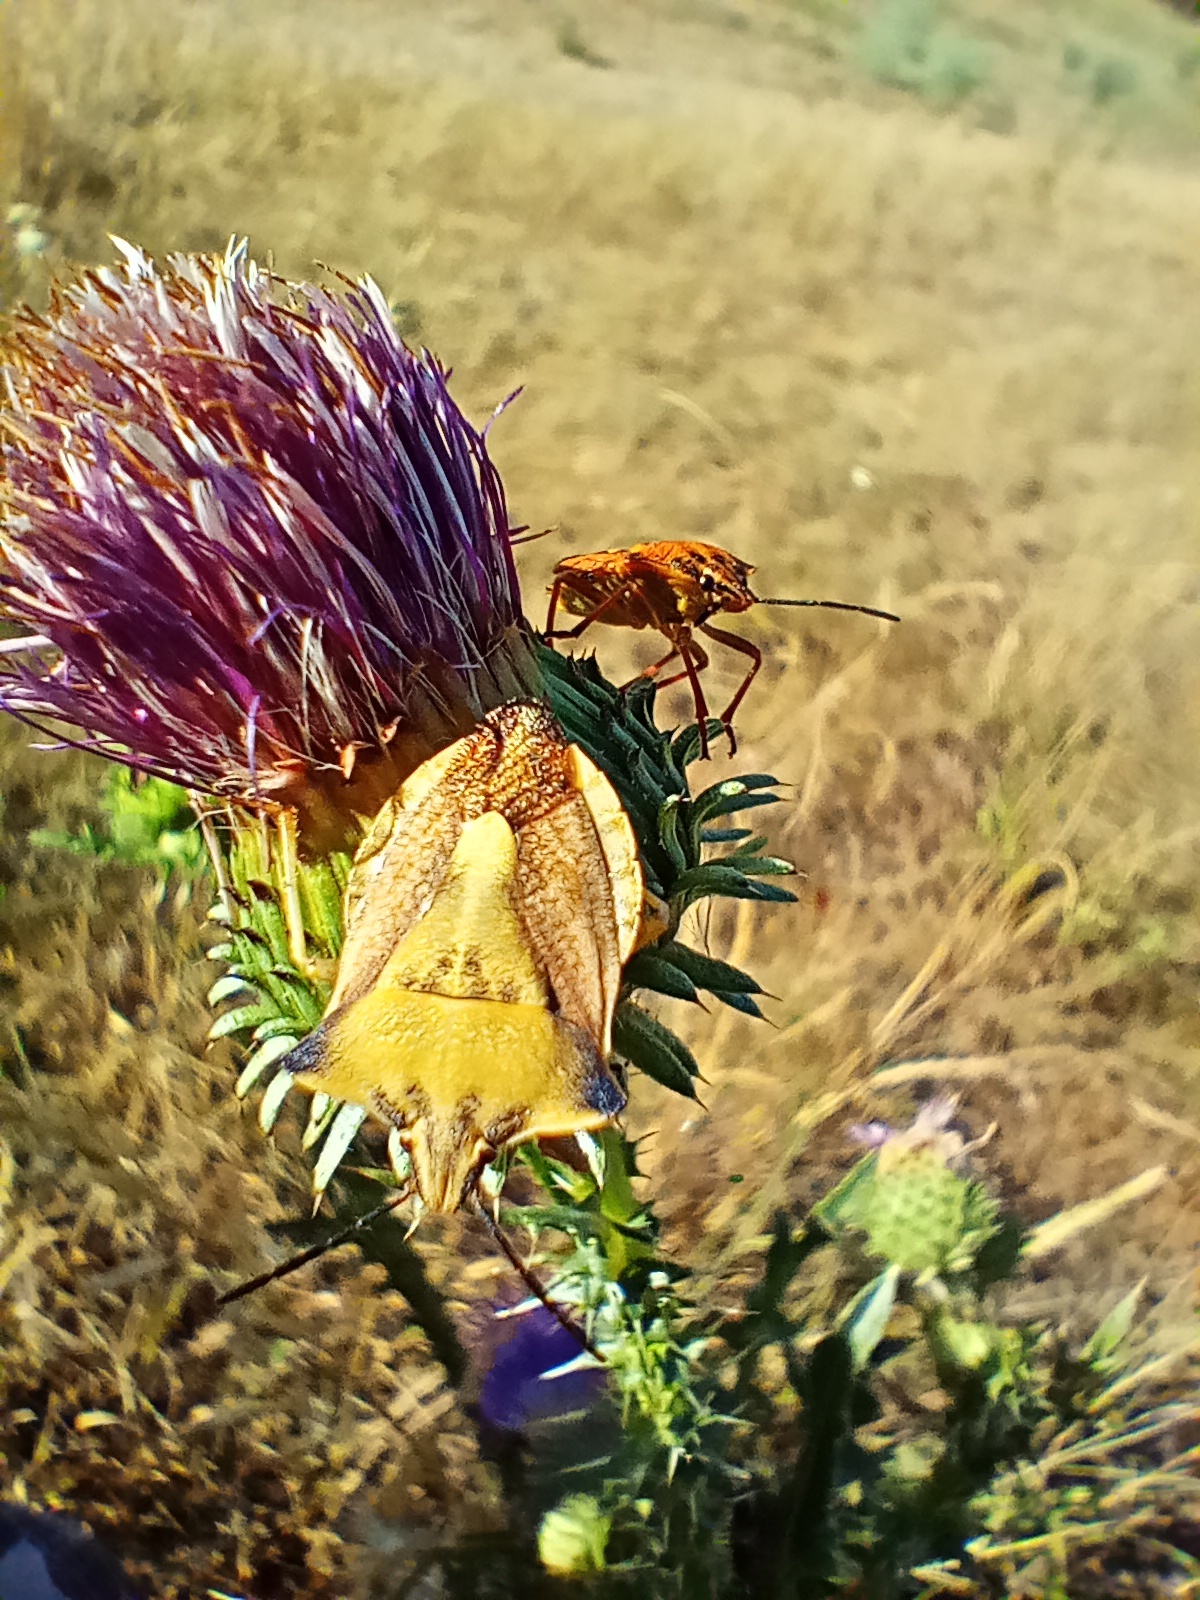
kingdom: Animalia
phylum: Arthropoda
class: Insecta
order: Hemiptera
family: Pentatomidae
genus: Carpocoris
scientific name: Carpocoris fuscispinus
